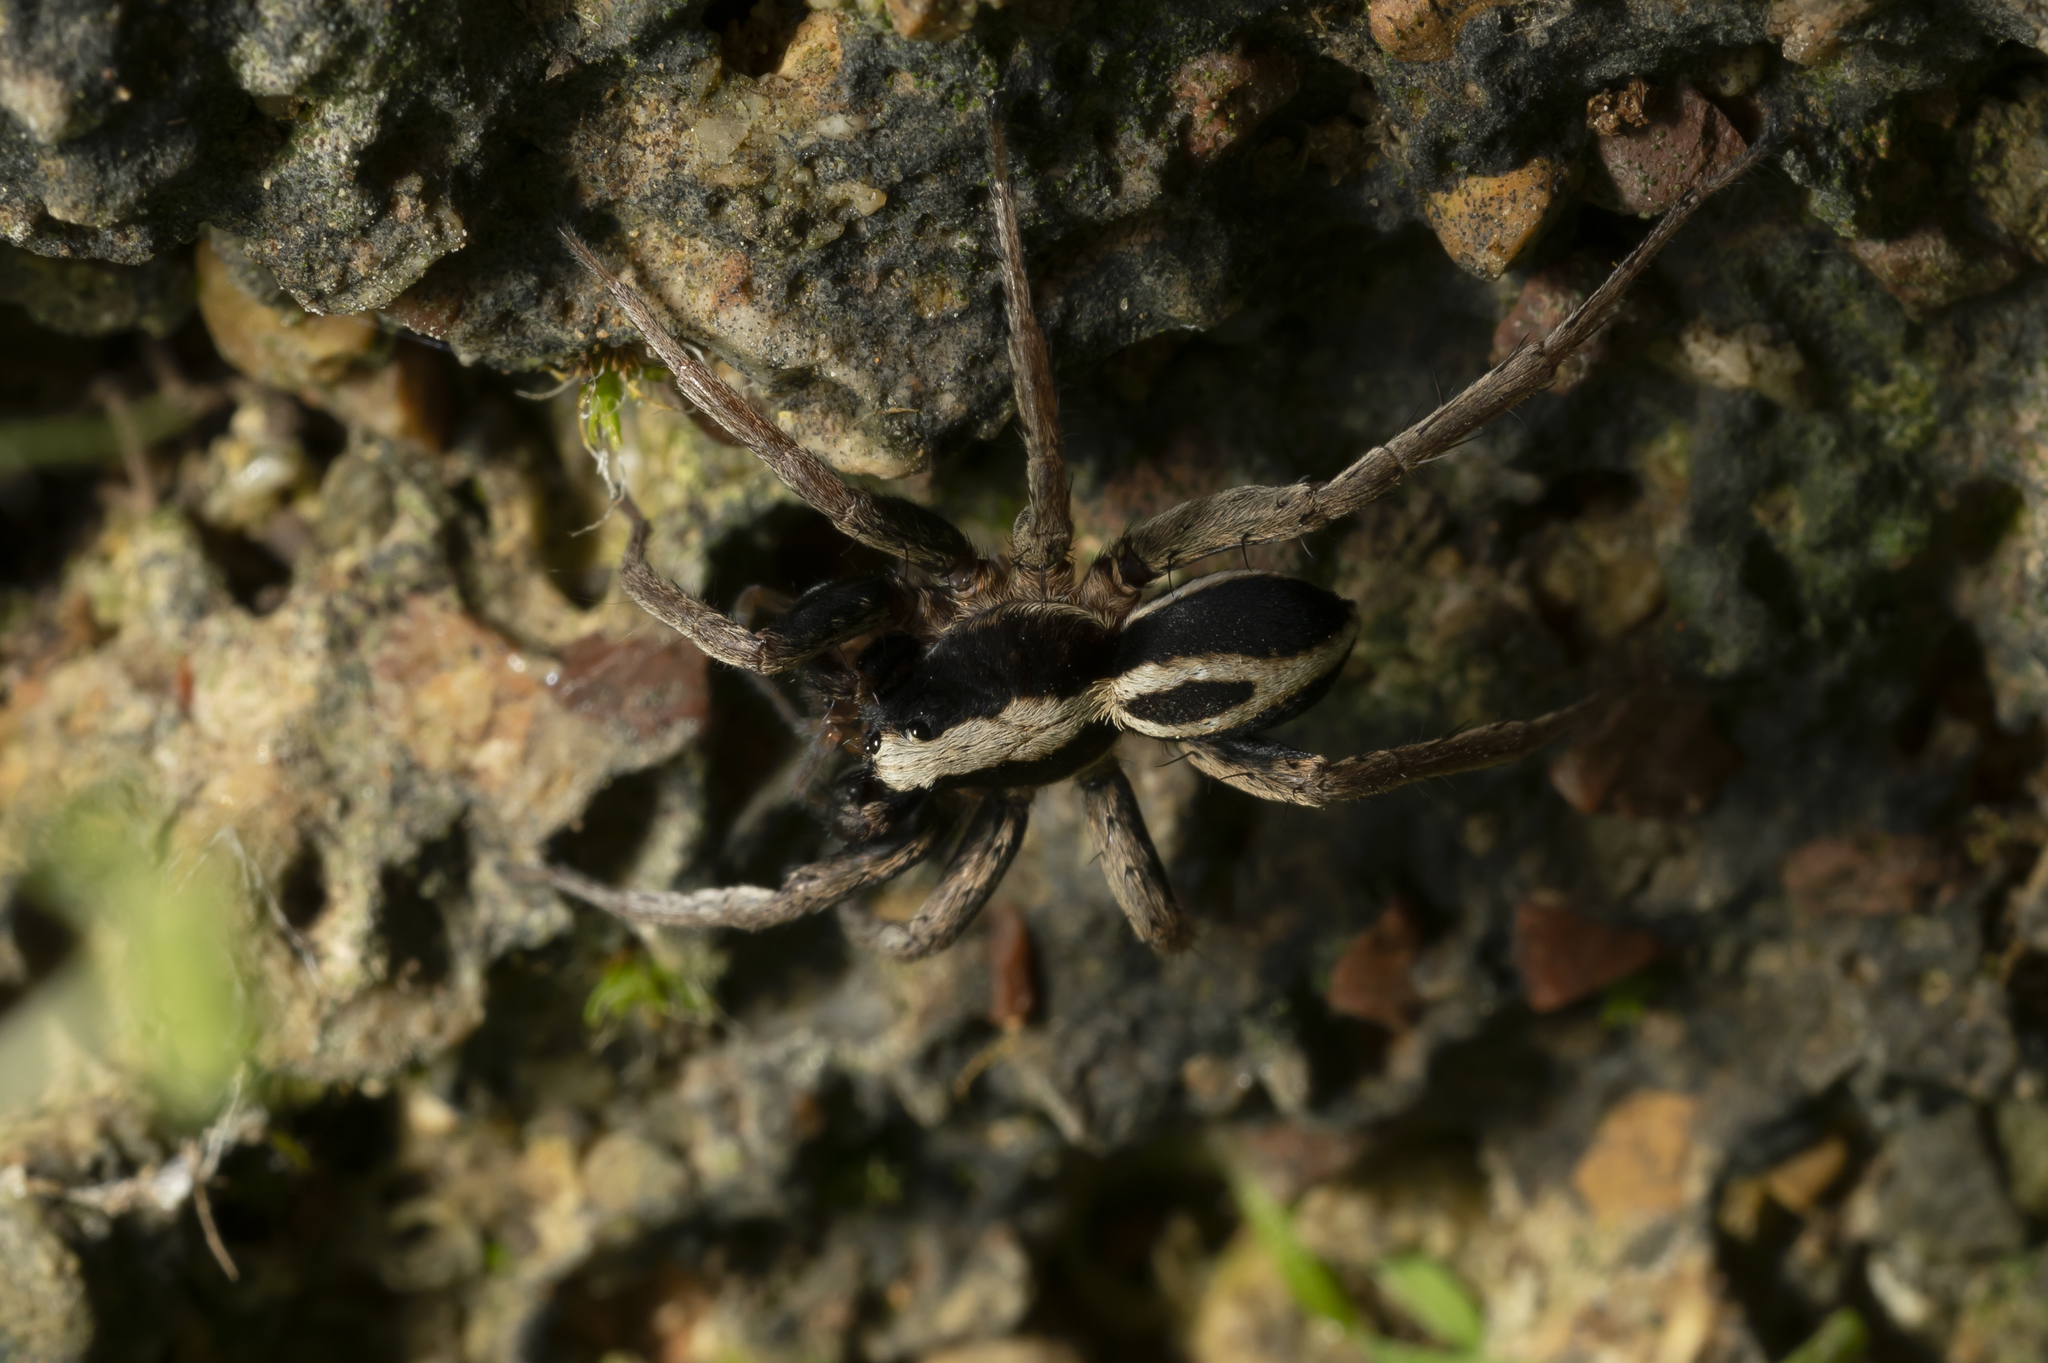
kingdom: Animalia
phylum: Arthropoda
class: Arachnida
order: Araneae
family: Lycosidae
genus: Alopecosa
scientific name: Alopecosa albofasciata
